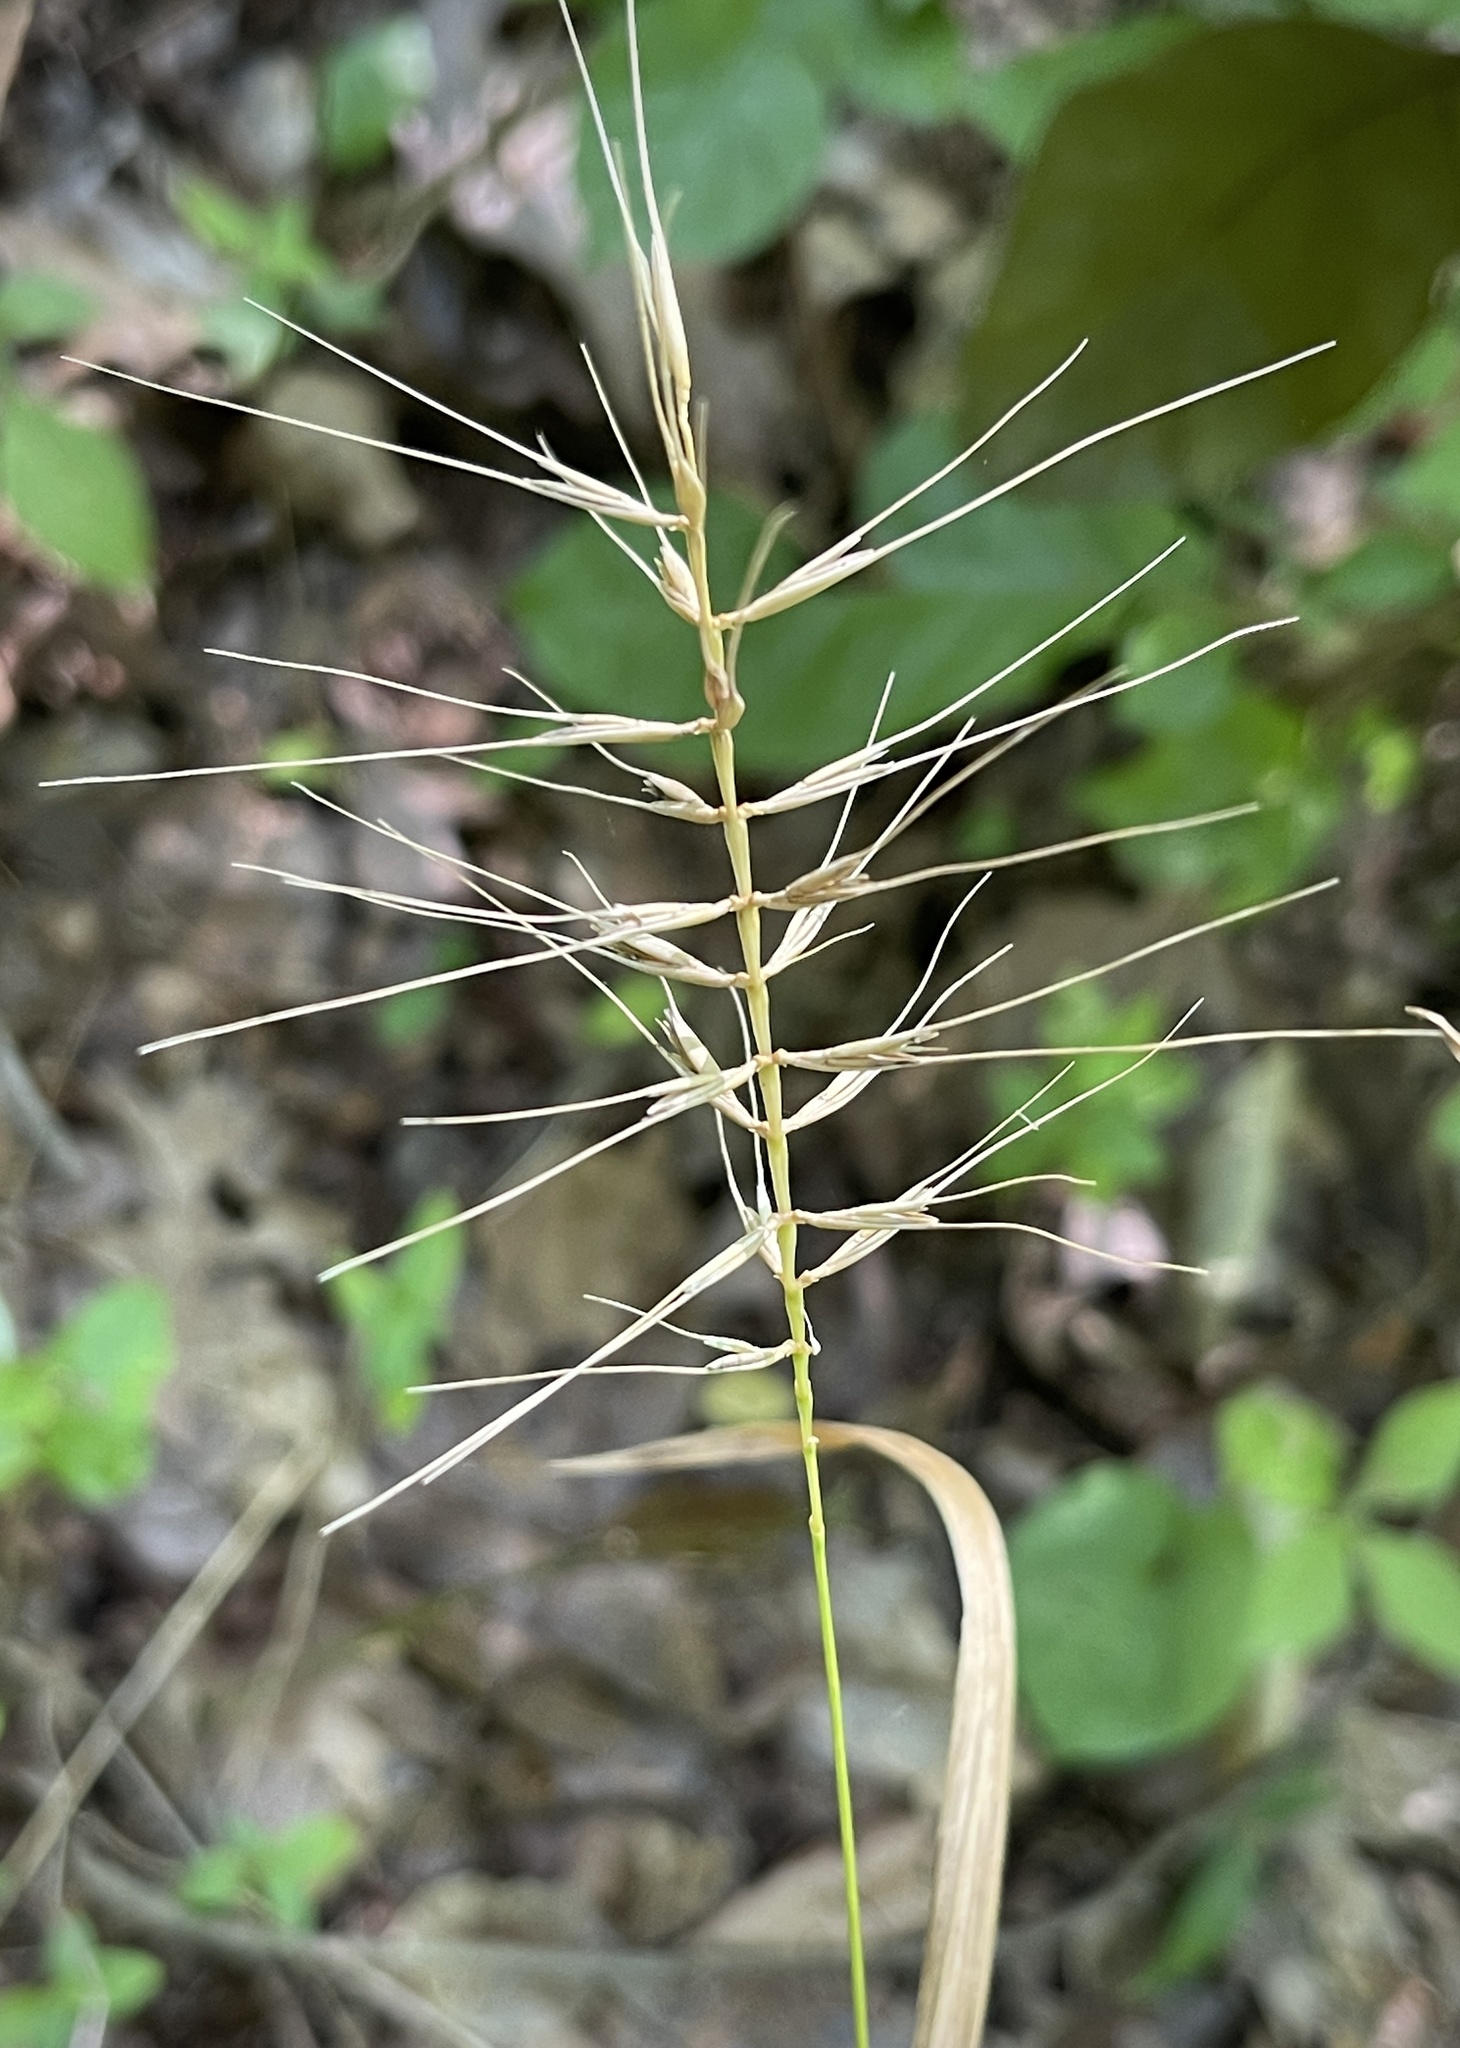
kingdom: Plantae
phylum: Tracheophyta
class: Liliopsida
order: Poales
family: Poaceae
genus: Elymus
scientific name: Elymus hystrix
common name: Bottlebrush grass
